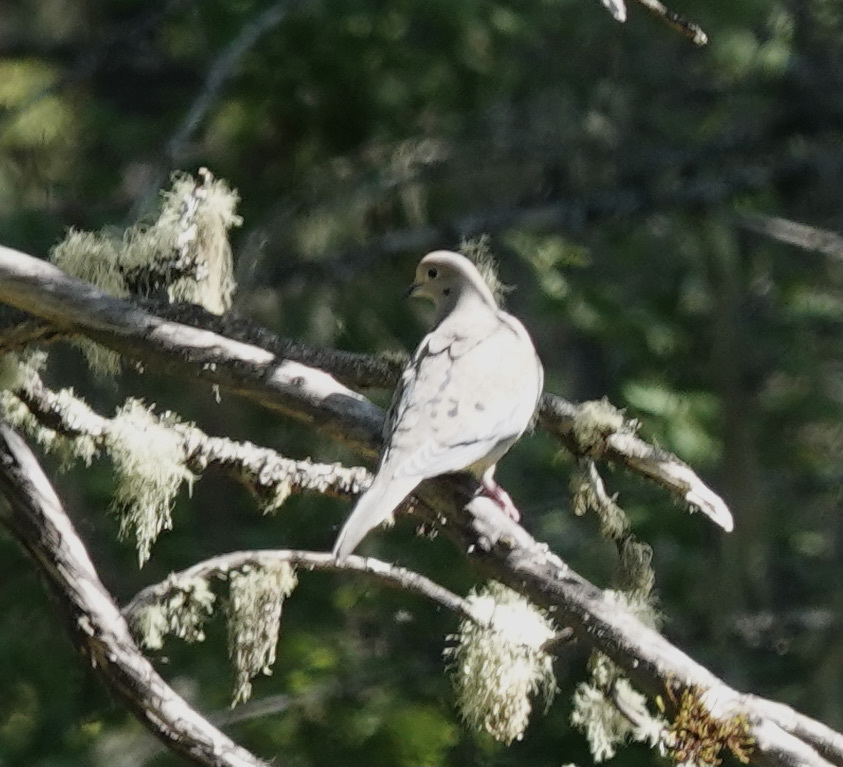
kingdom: Animalia
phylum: Chordata
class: Aves
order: Columbiformes
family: Columbidae
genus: Zenaida
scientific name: Zenaida macroura
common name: Mourning dove
